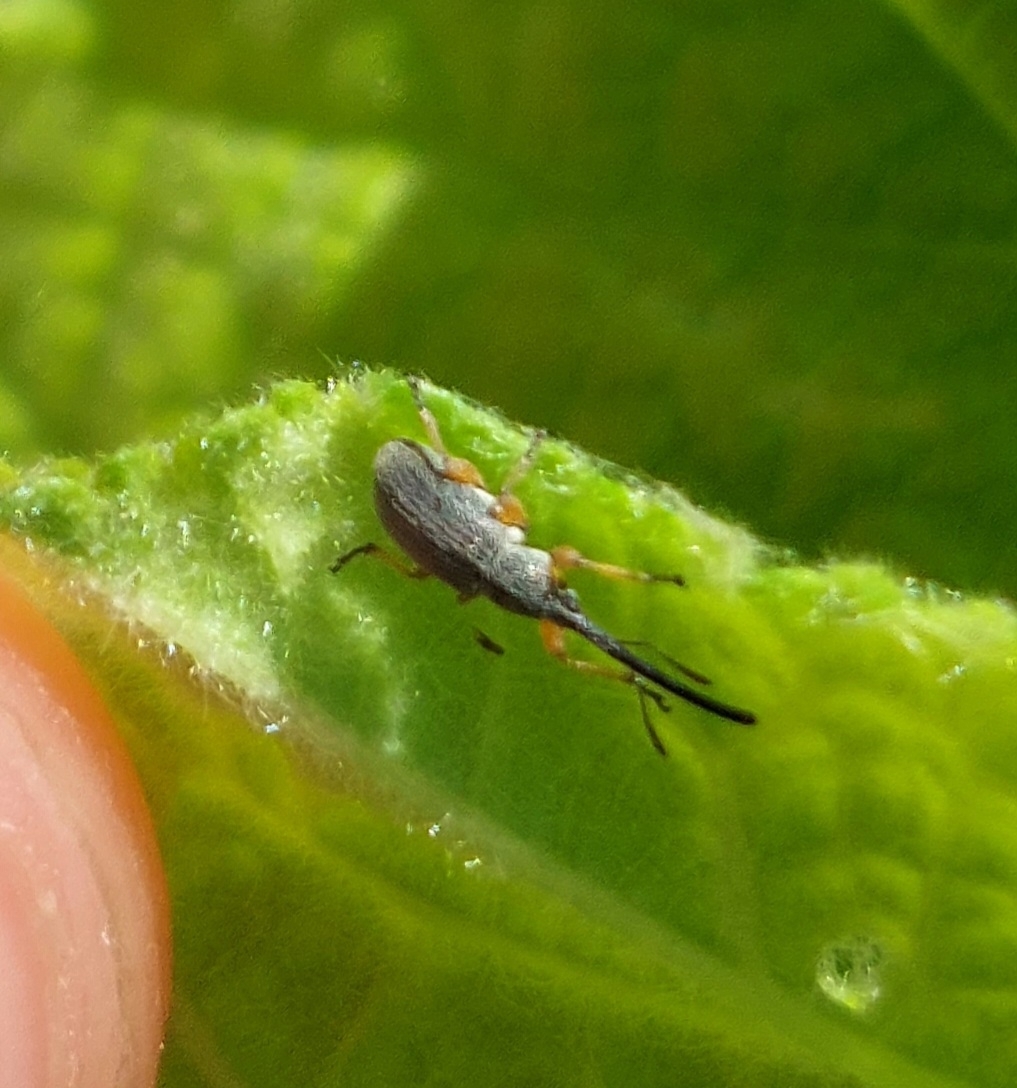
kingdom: Animalia
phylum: Arthropoda
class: Insecta
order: Coleoptera
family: Brentidae
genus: Rhopalapion
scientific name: Rhopalapion longirostre
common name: Hollyhock weevil
